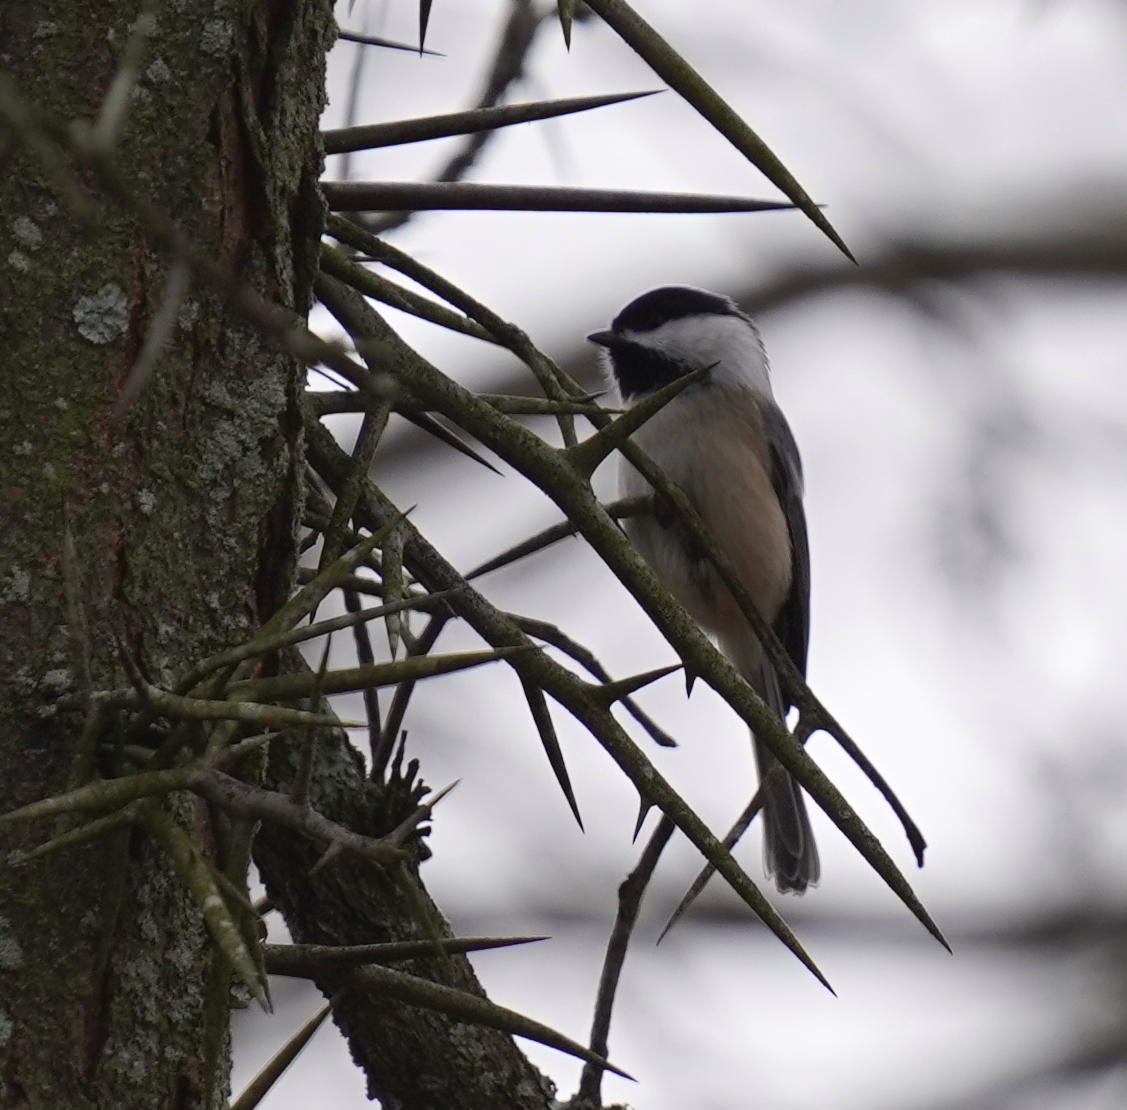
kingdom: Animalia
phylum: Chordata
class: Aves
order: Passeriformes
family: Paridae
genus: Poecile
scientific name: Poecile atricapillus
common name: Black-capped chickadee
